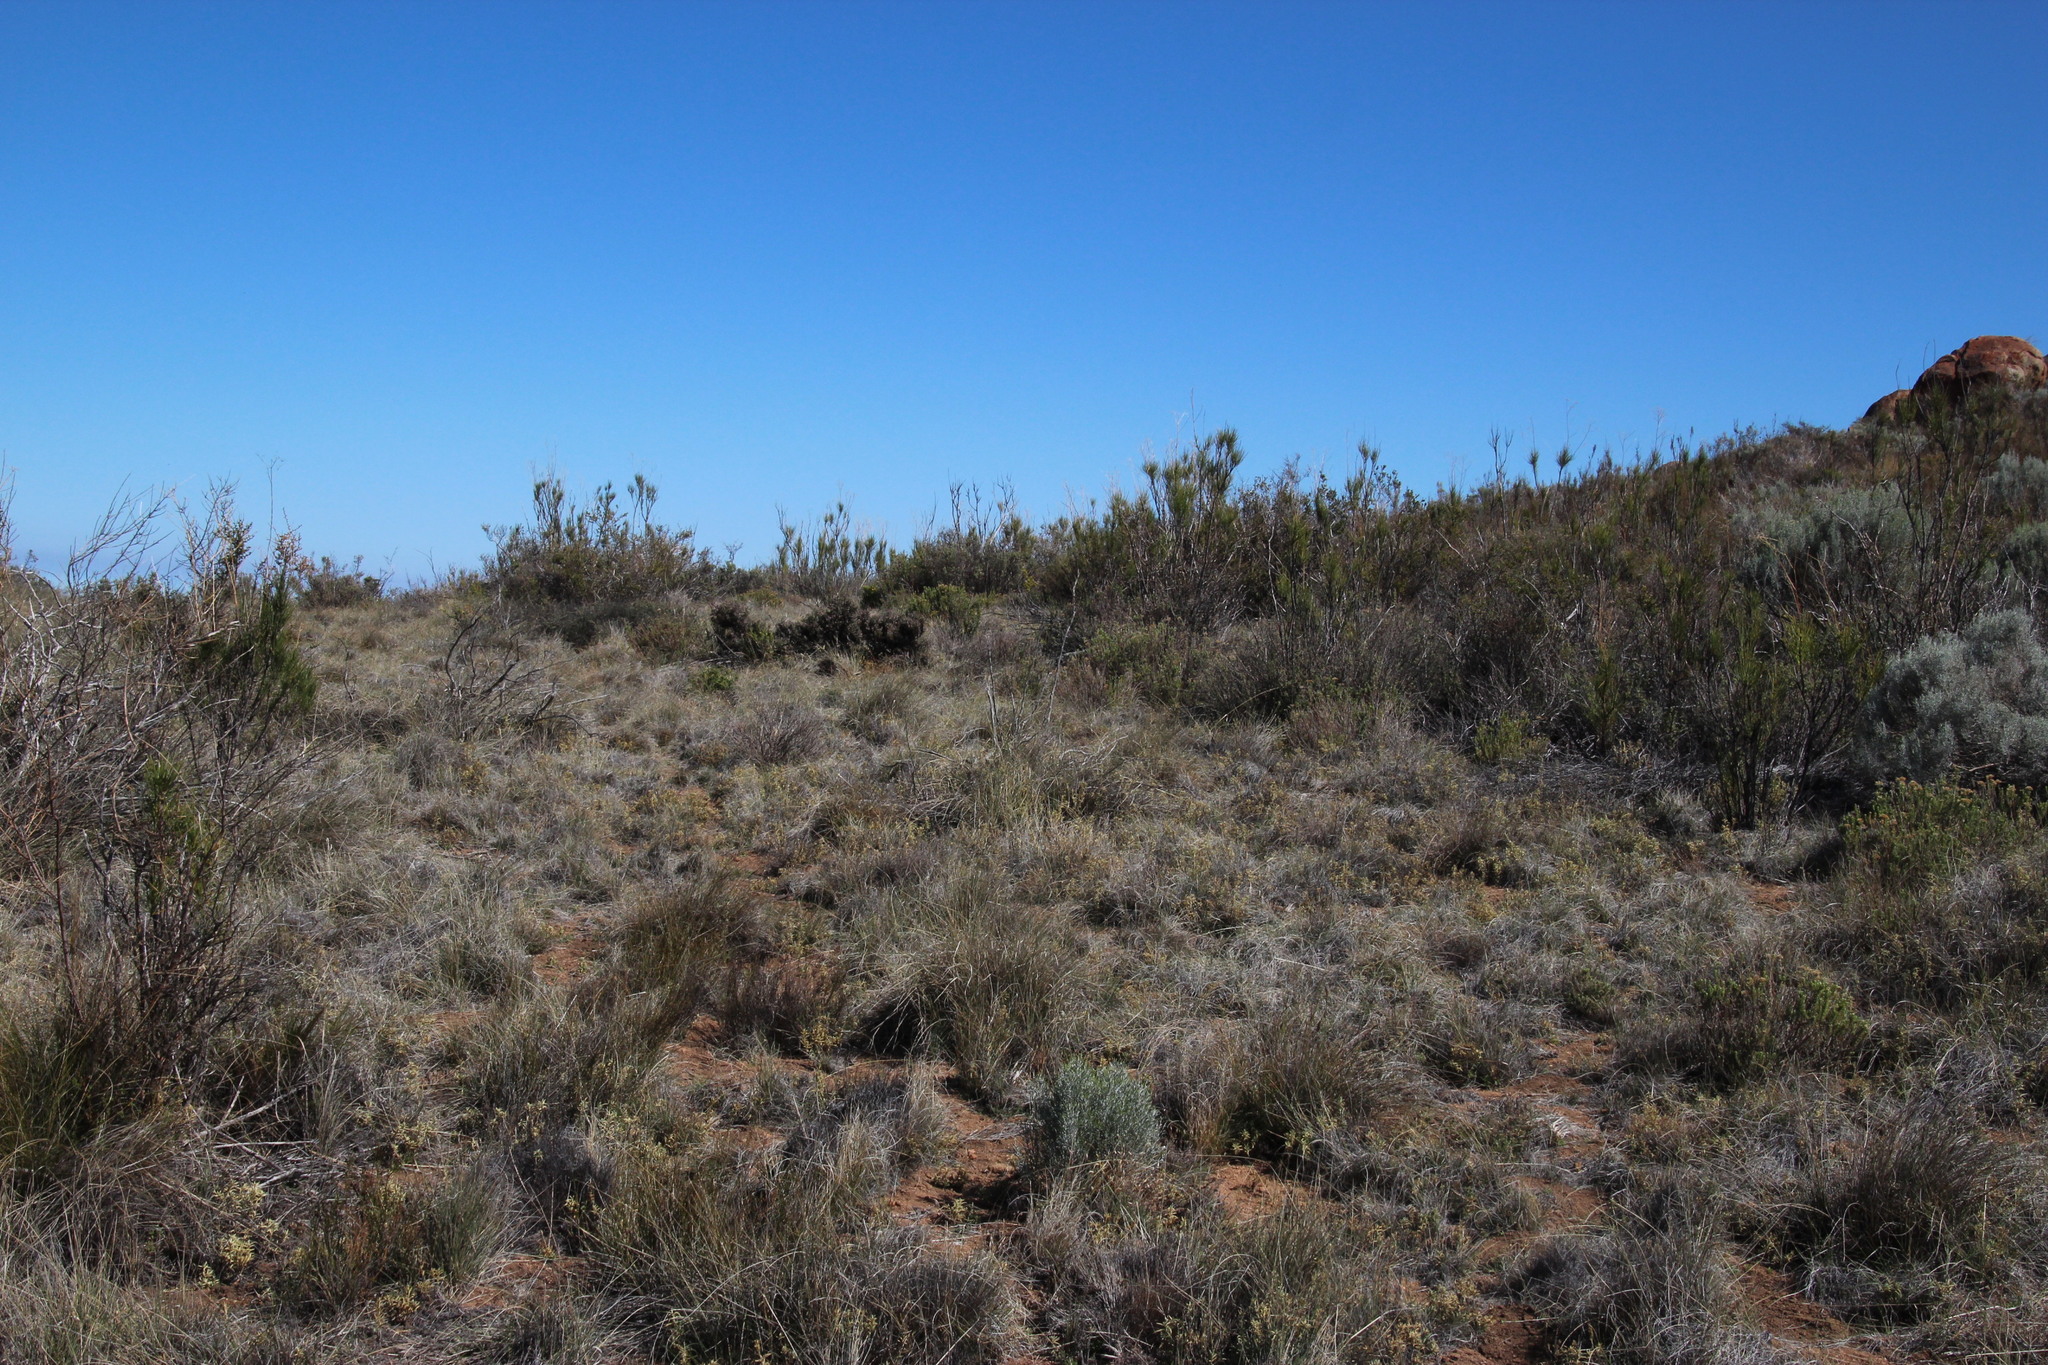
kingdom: Plantae
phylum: Tracheophyta
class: Magnoliopsida
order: Apiales
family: Apiaceae
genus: Anginon
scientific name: Anginon difforme
